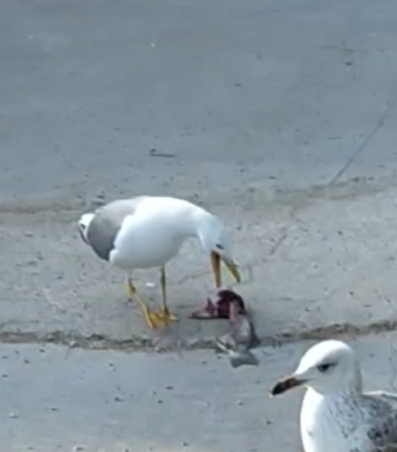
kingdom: Animalia
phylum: Chordata
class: Aves
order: Charadriiformes
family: Laridae
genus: Larus
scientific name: Larus michahellis
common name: Yellow-legged gull
